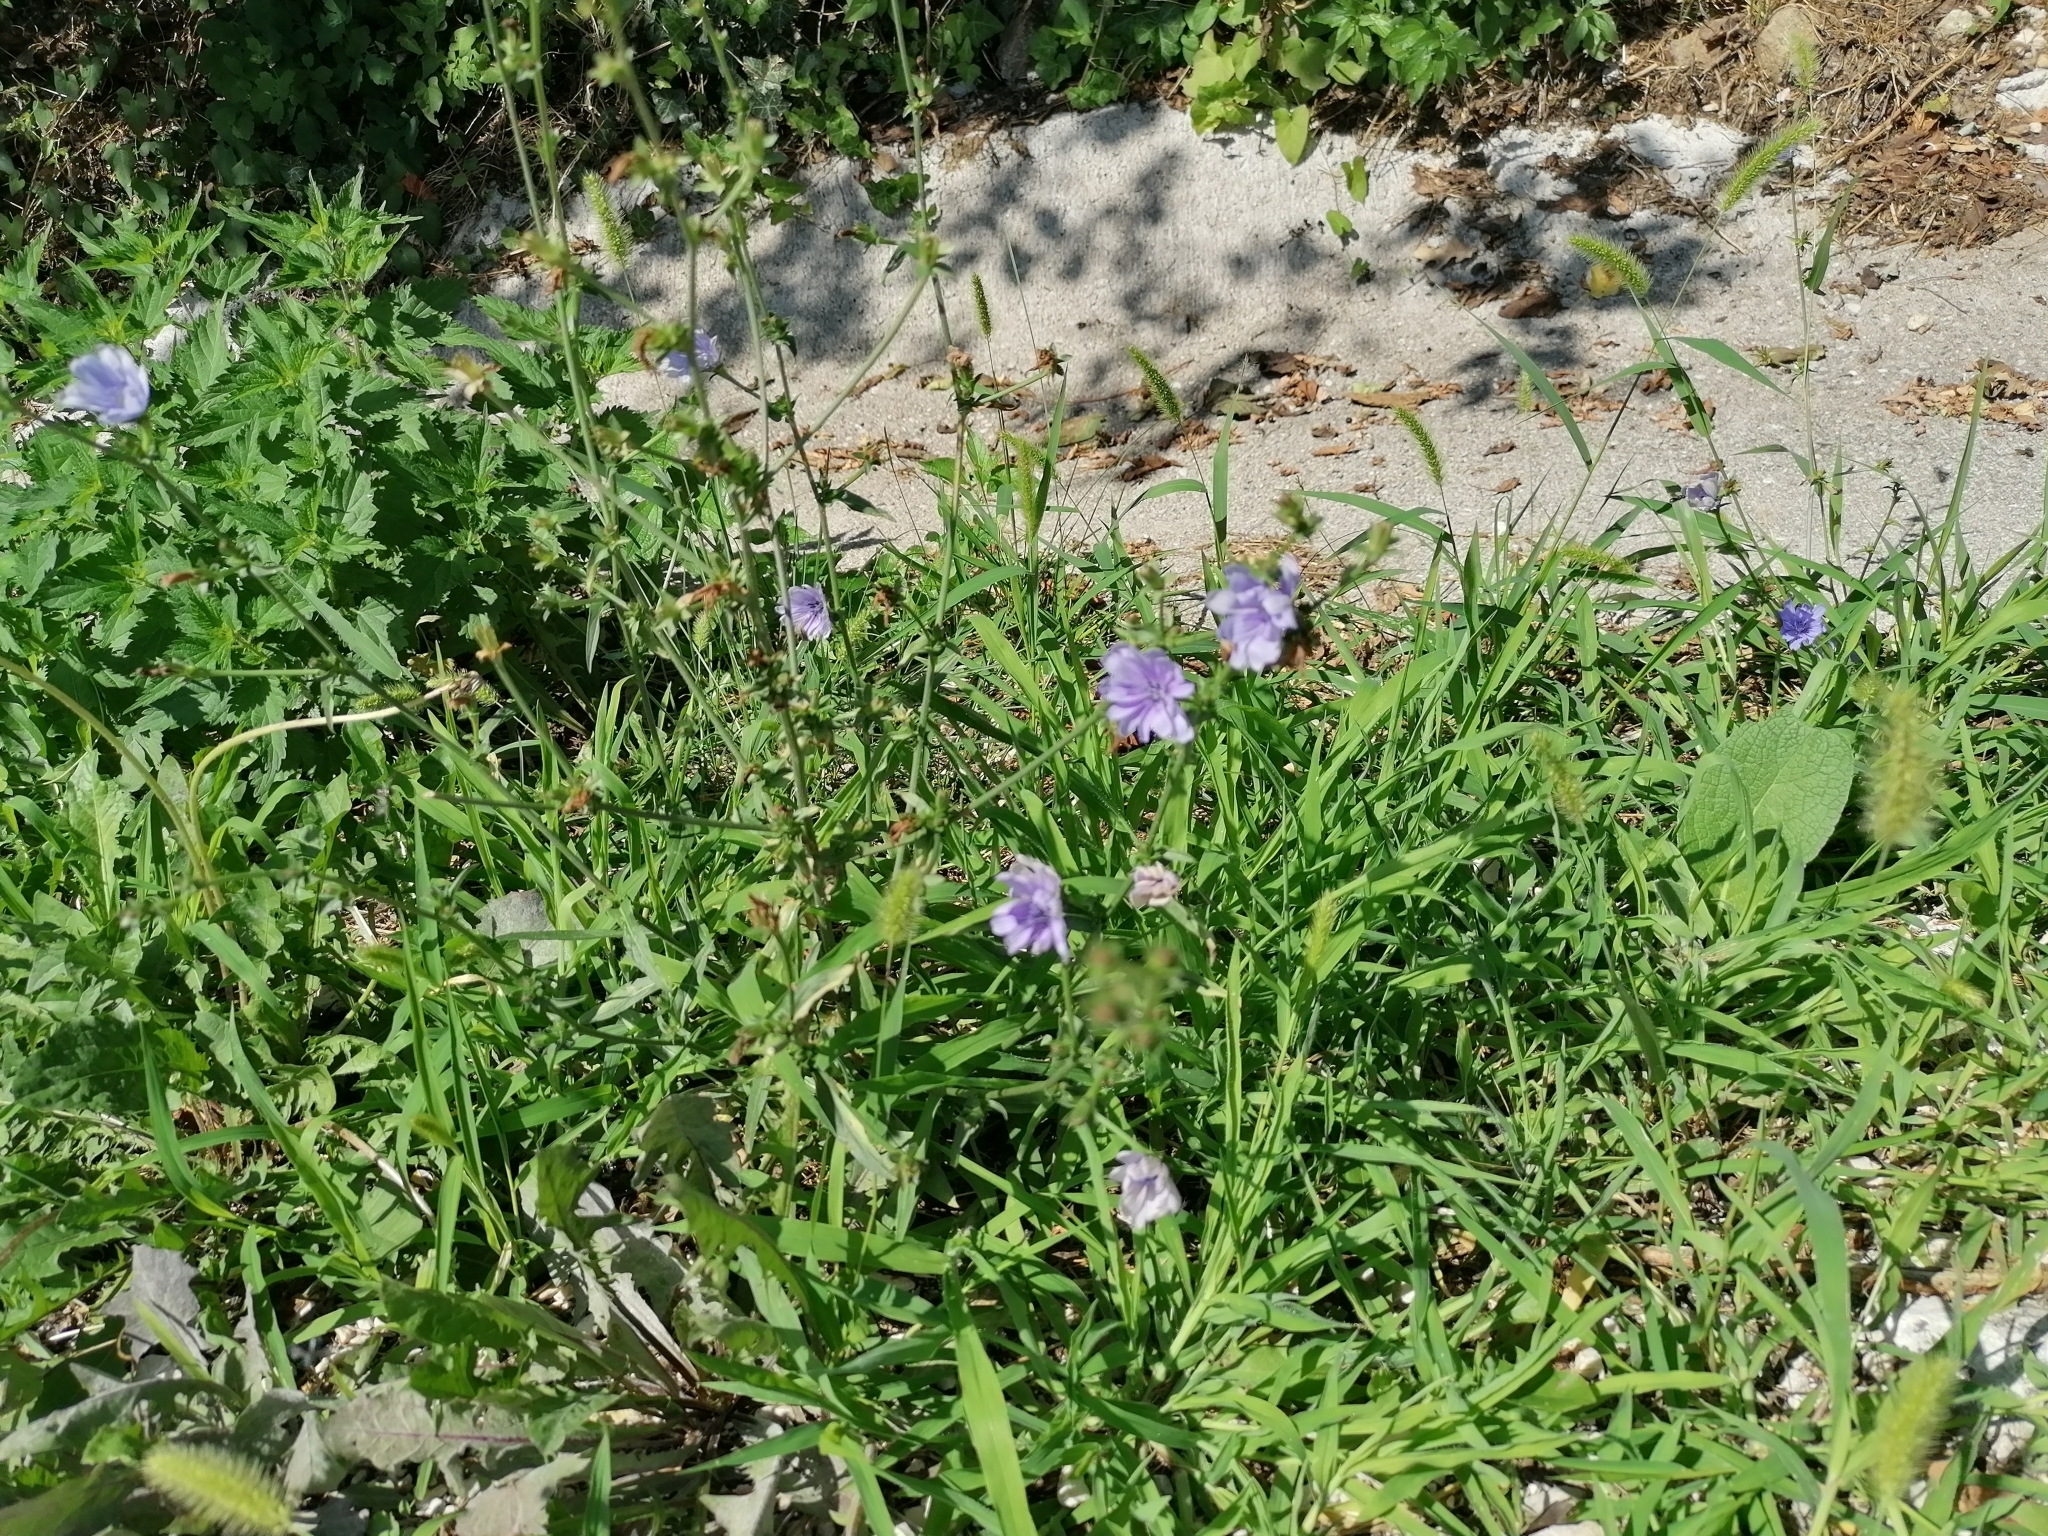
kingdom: Plantae
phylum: Tracheophyta
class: Magnoliopsida
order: Asterales
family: Asteraceae
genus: Cichorium
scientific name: Cichorium intybus
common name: Chicory
